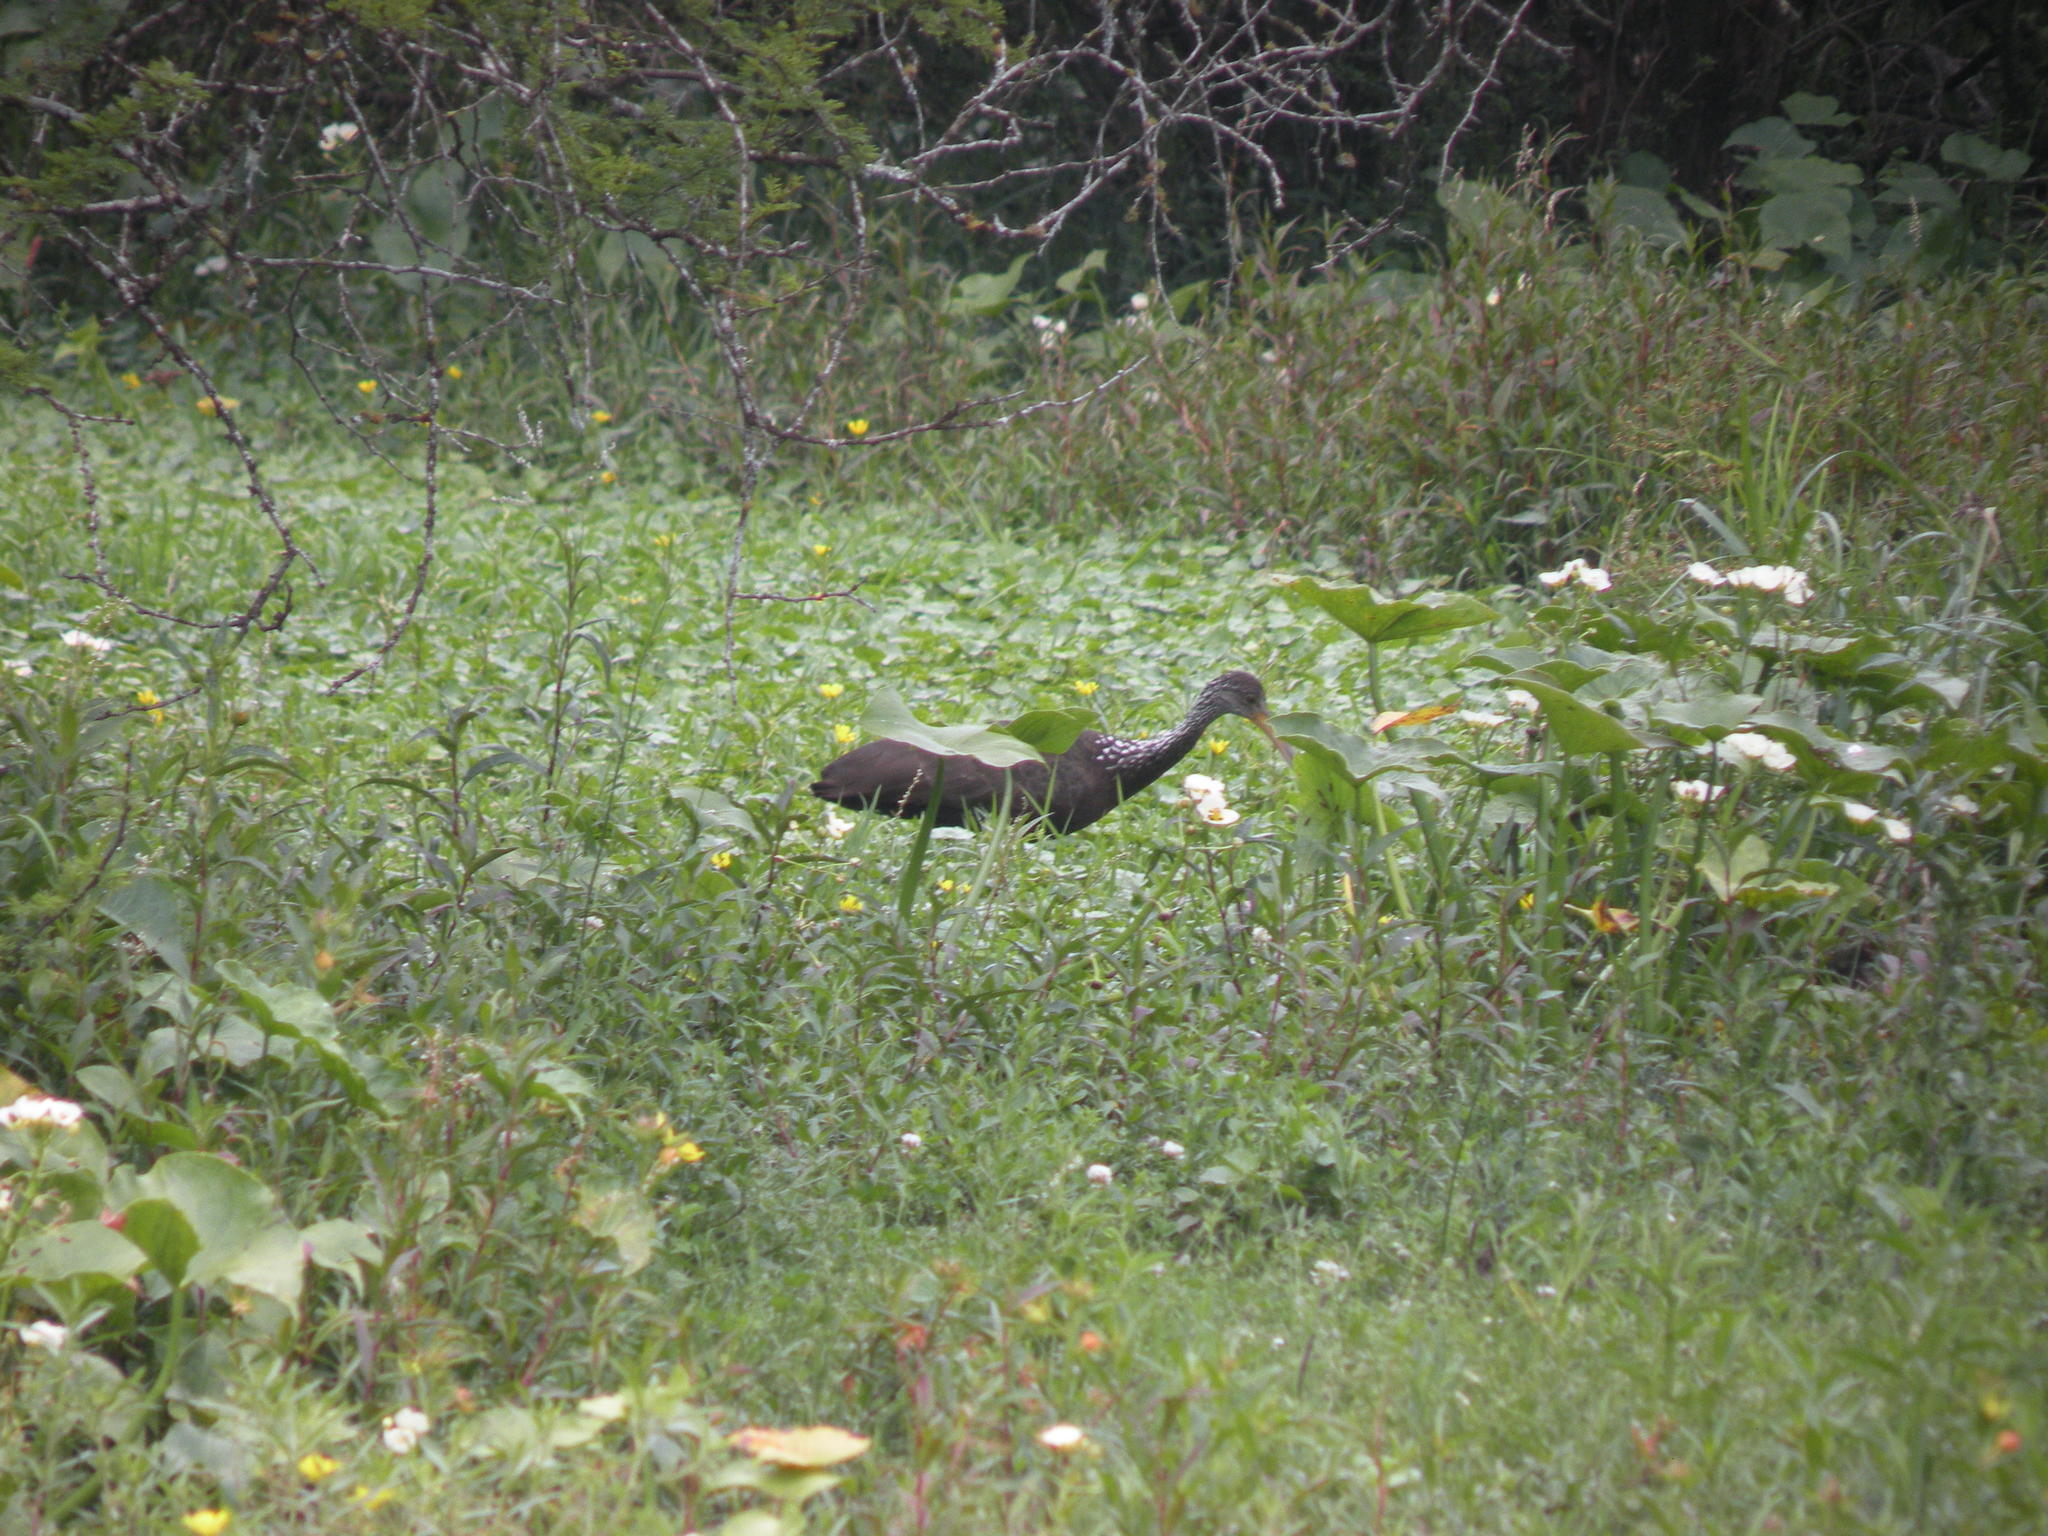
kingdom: Animalia
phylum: Chordata
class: Aves
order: Gruiformes
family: Aramidae
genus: Aramus
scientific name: Aramus guarauna
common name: Limpkin
